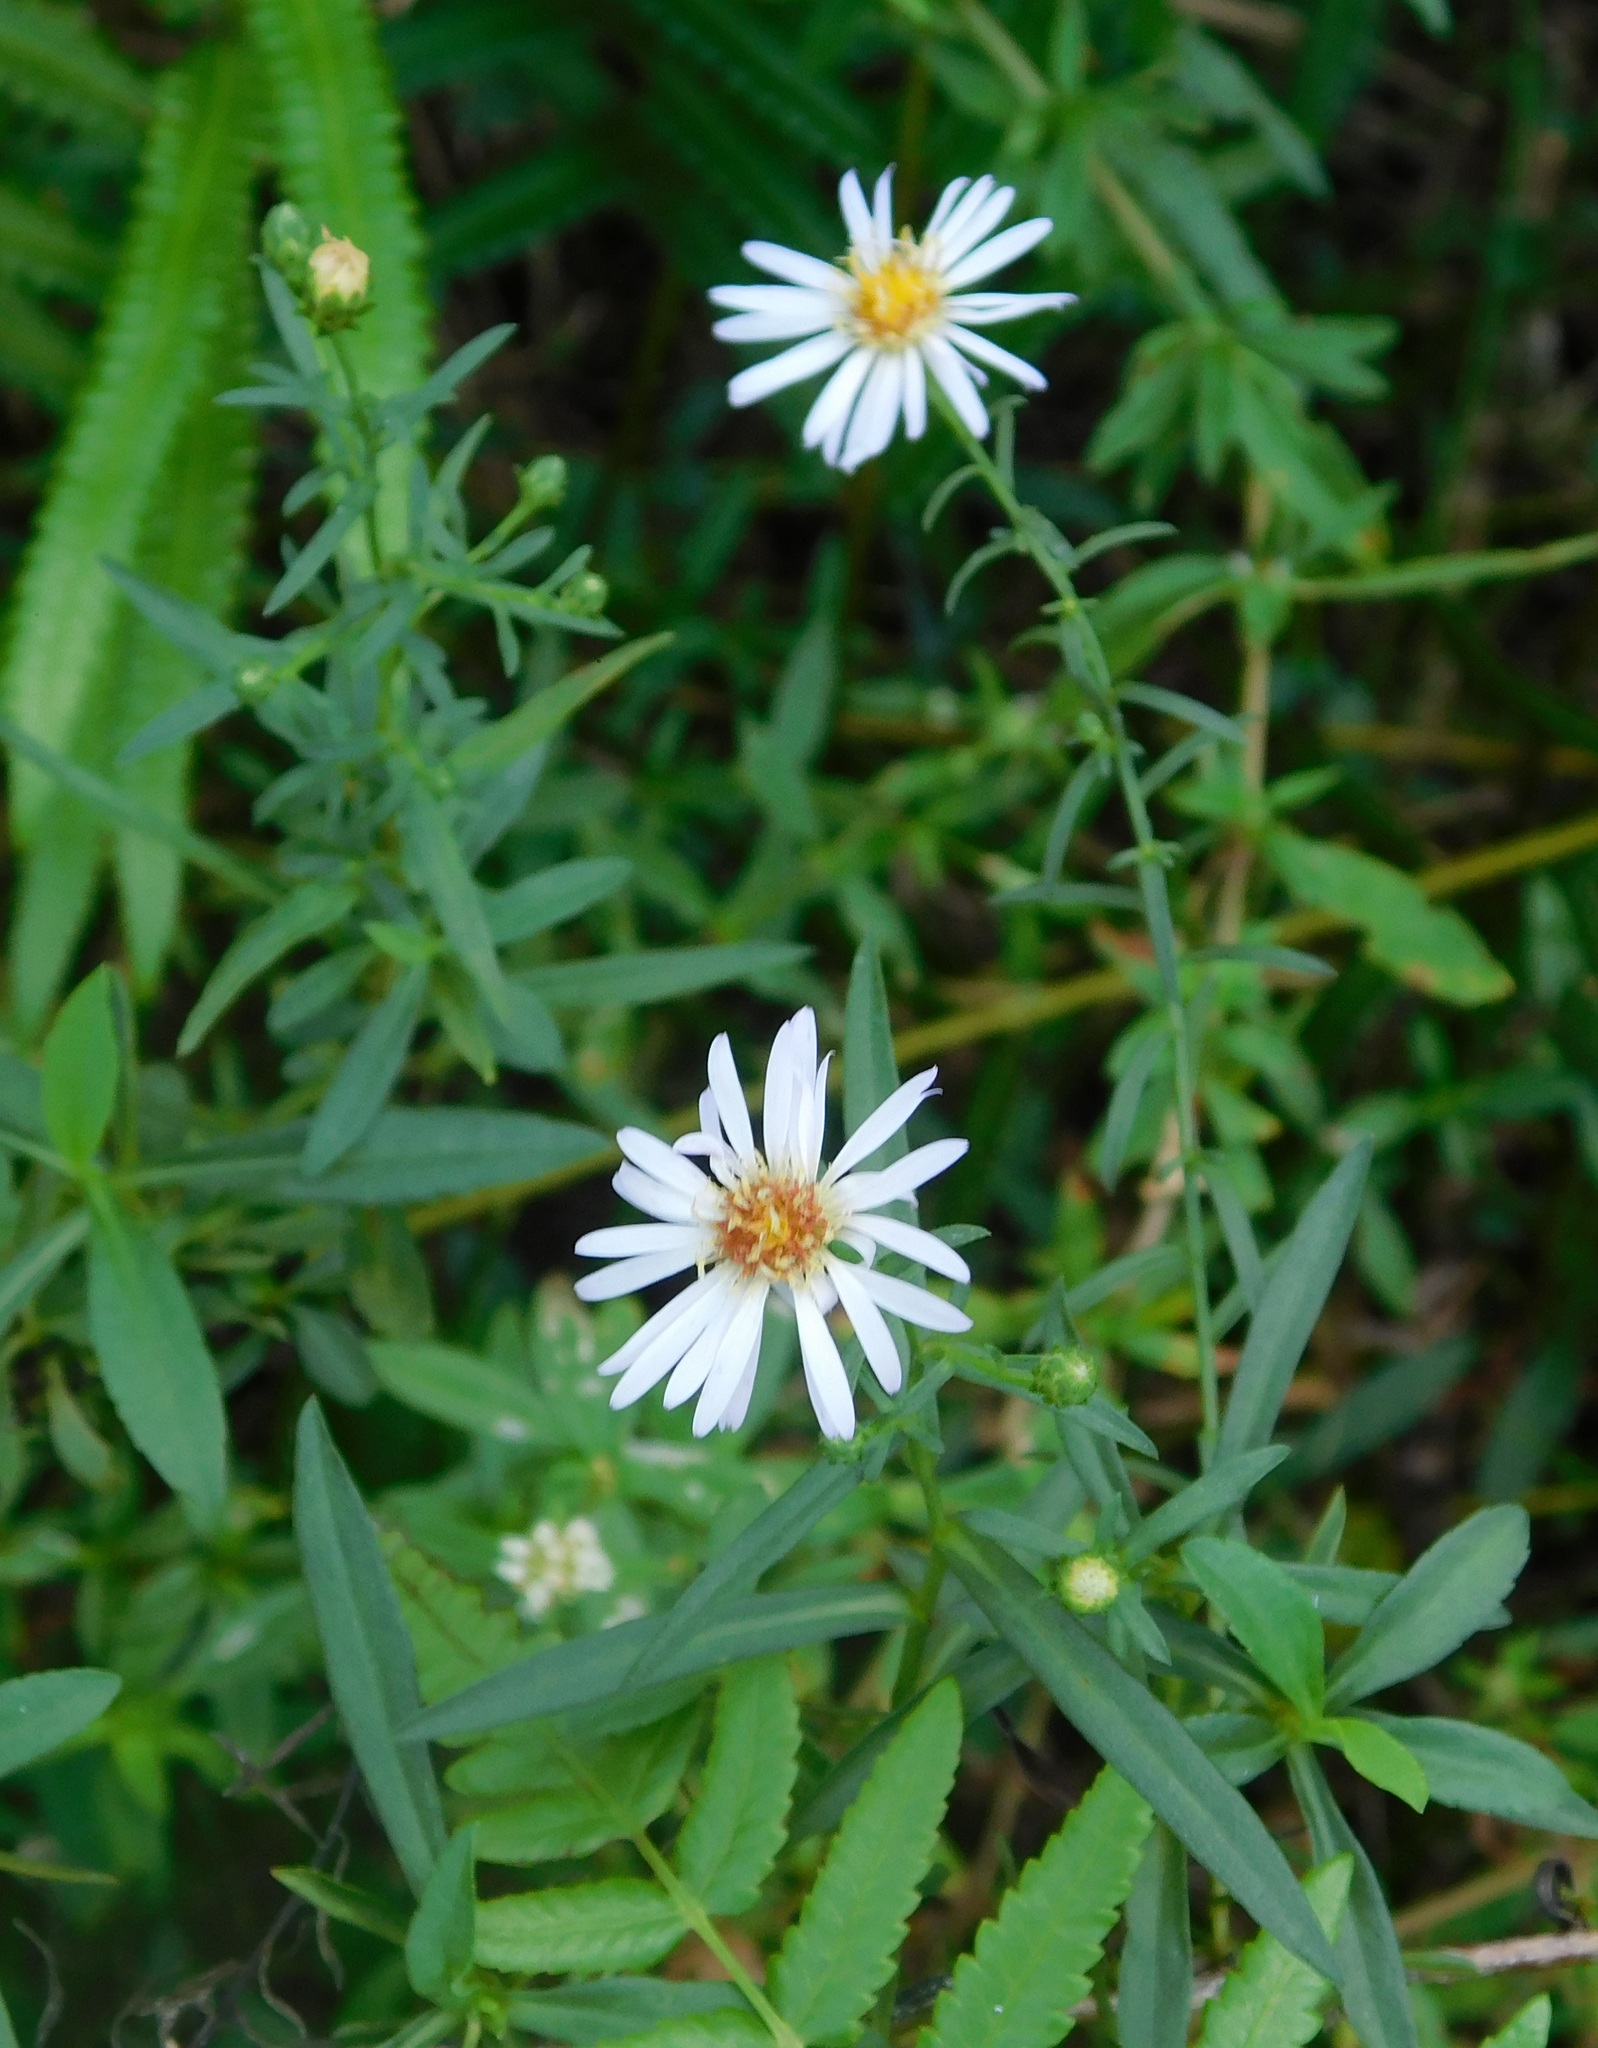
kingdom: Plantae
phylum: Tracheophyta
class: Magnoliopsida
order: Asterales
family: Asteraceae
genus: Symphyotrichum
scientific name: Symphyotrichum simmondsii
